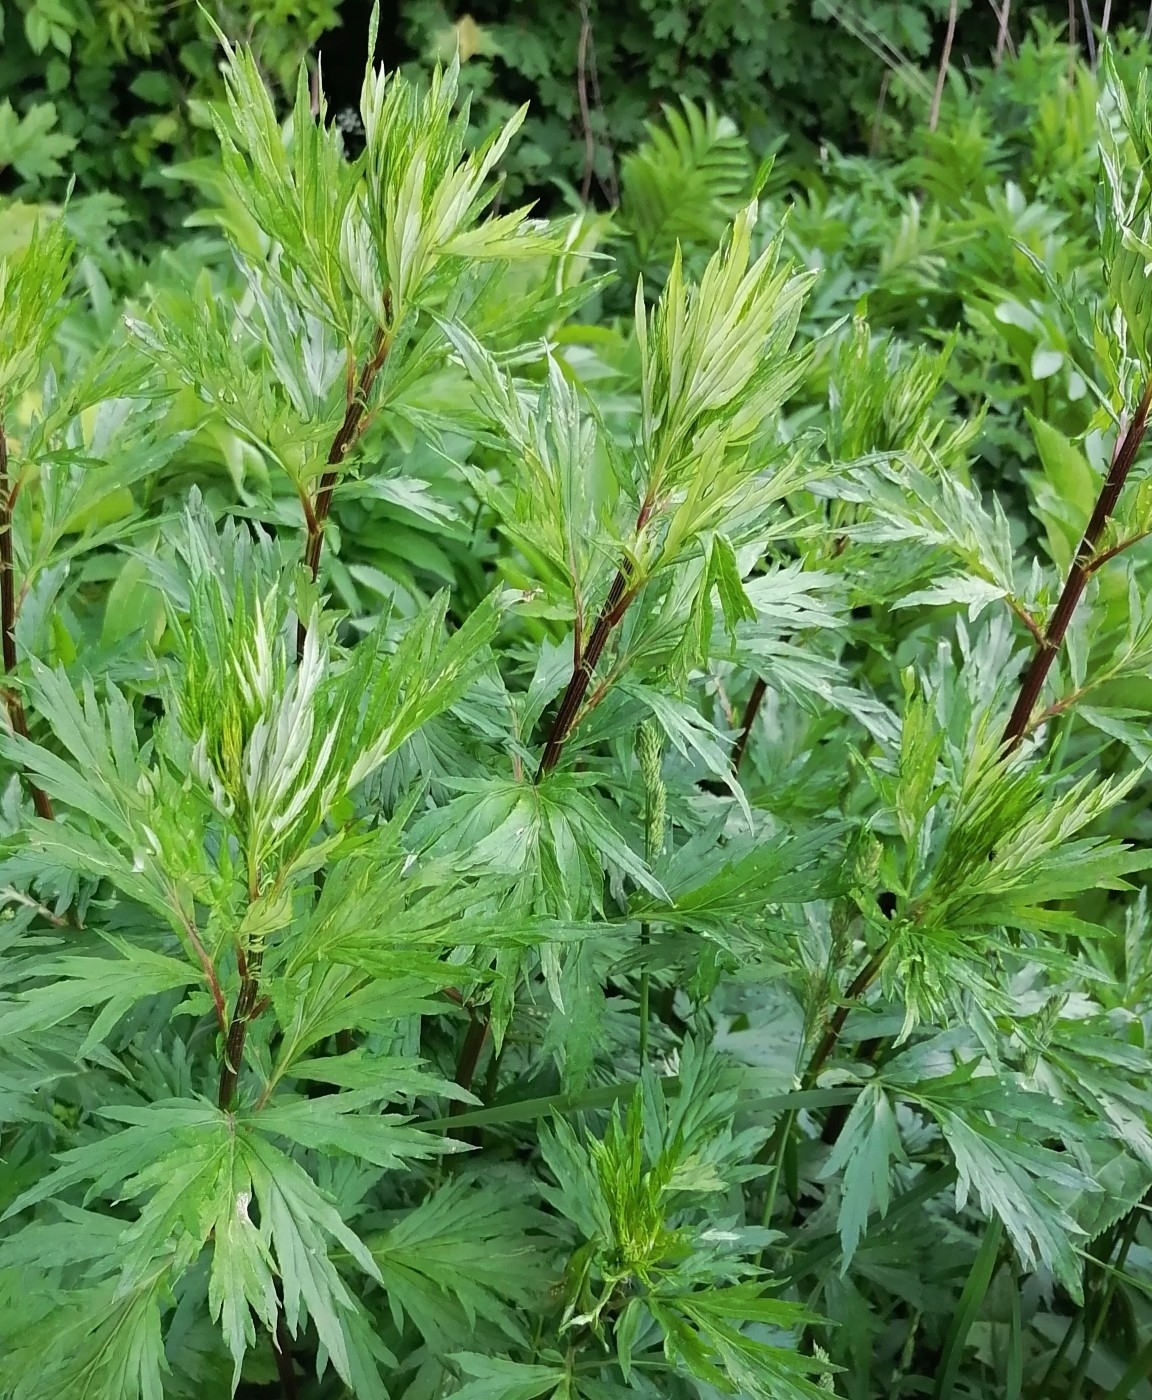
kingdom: Plantae
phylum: Tracheophyta
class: Magnoliopsida
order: Asterales
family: Asteraceae
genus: Artemisia
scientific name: Artemisia vulgaris
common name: Mugwort
